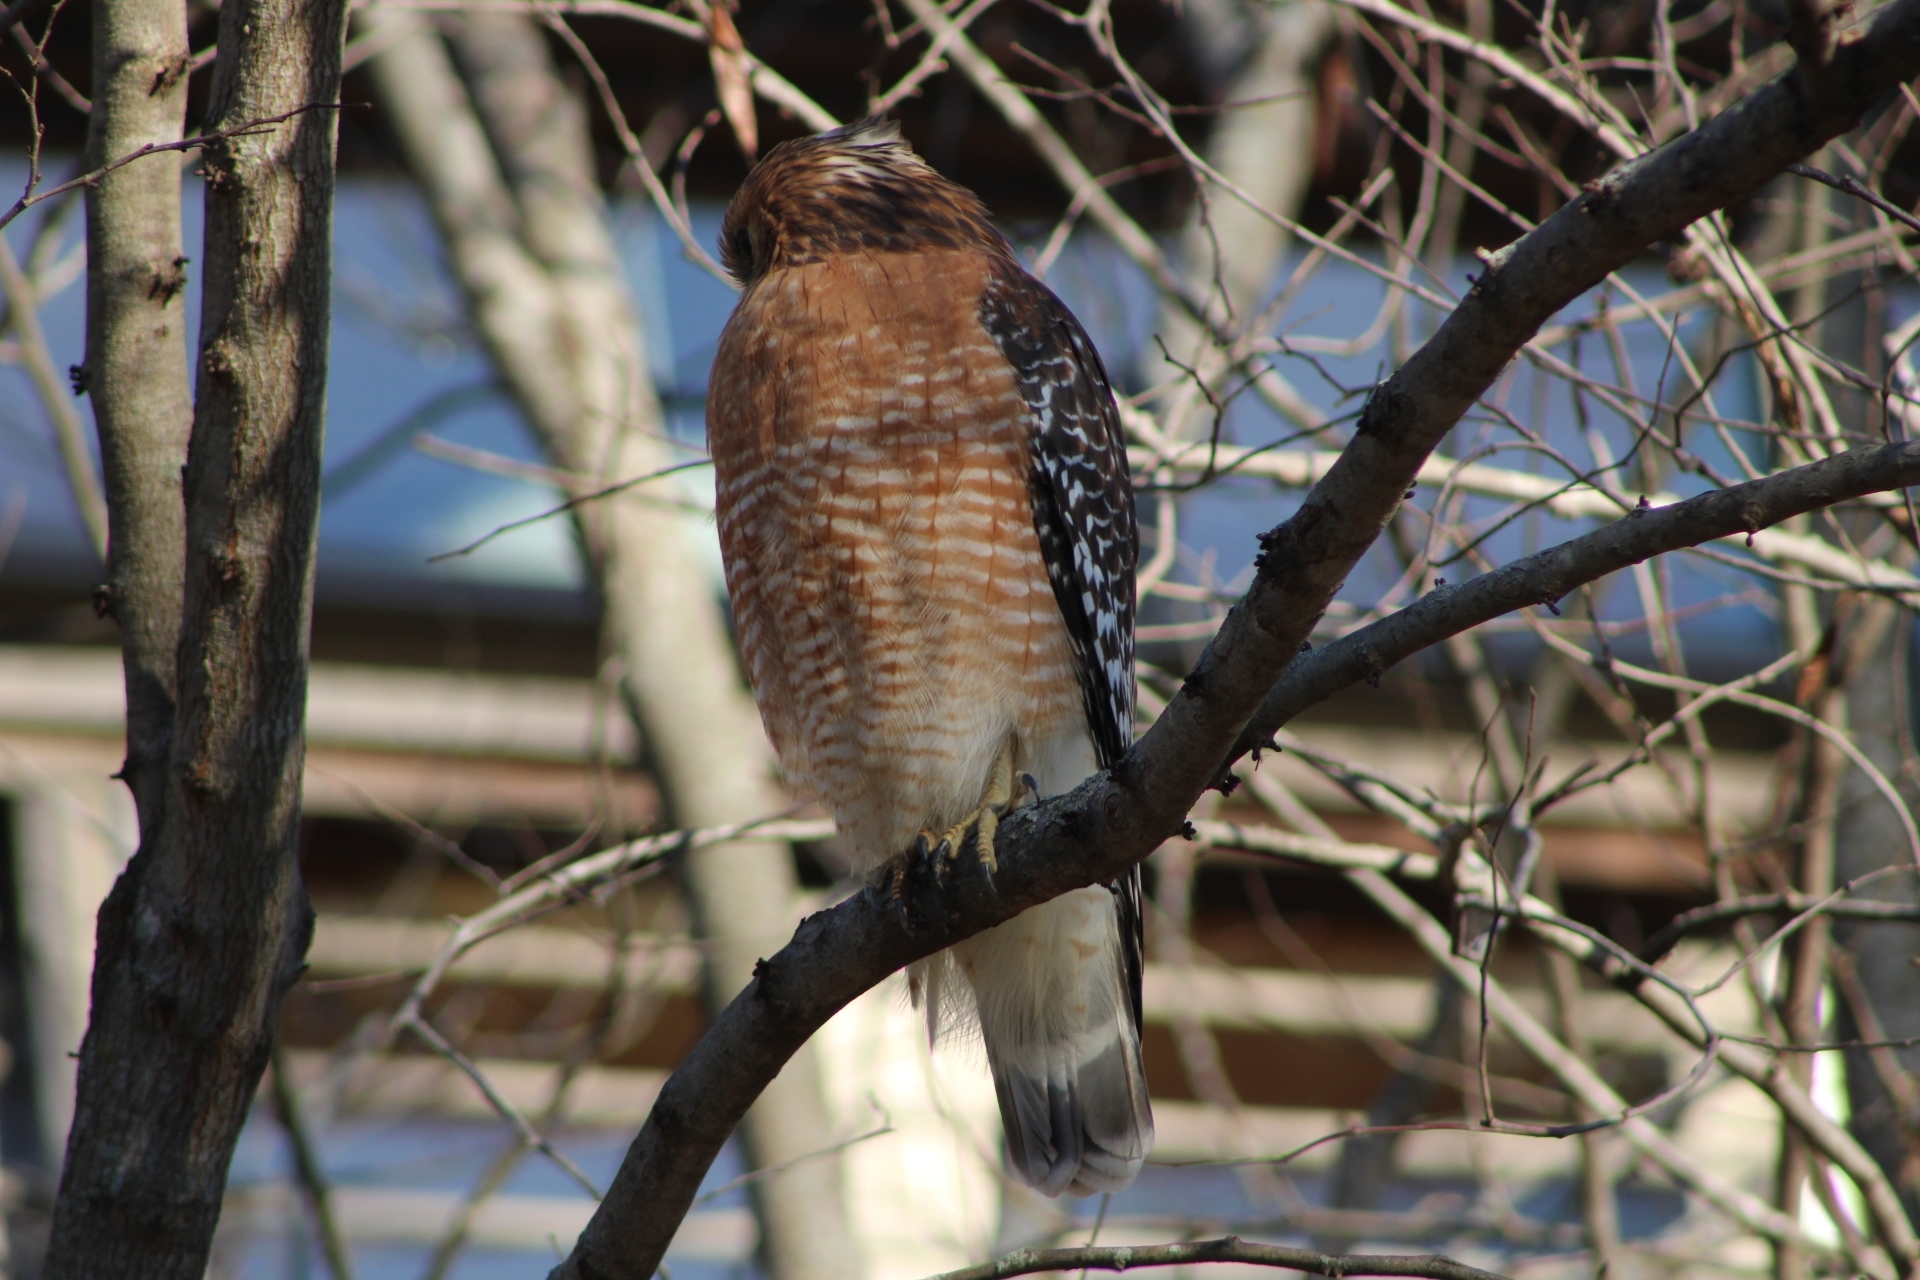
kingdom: Animalia
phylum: Chordata
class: Aves
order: Accipitriformes
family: Accipitridae
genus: Buteo
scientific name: Buteo lineatus
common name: Red-shouldered hawk
